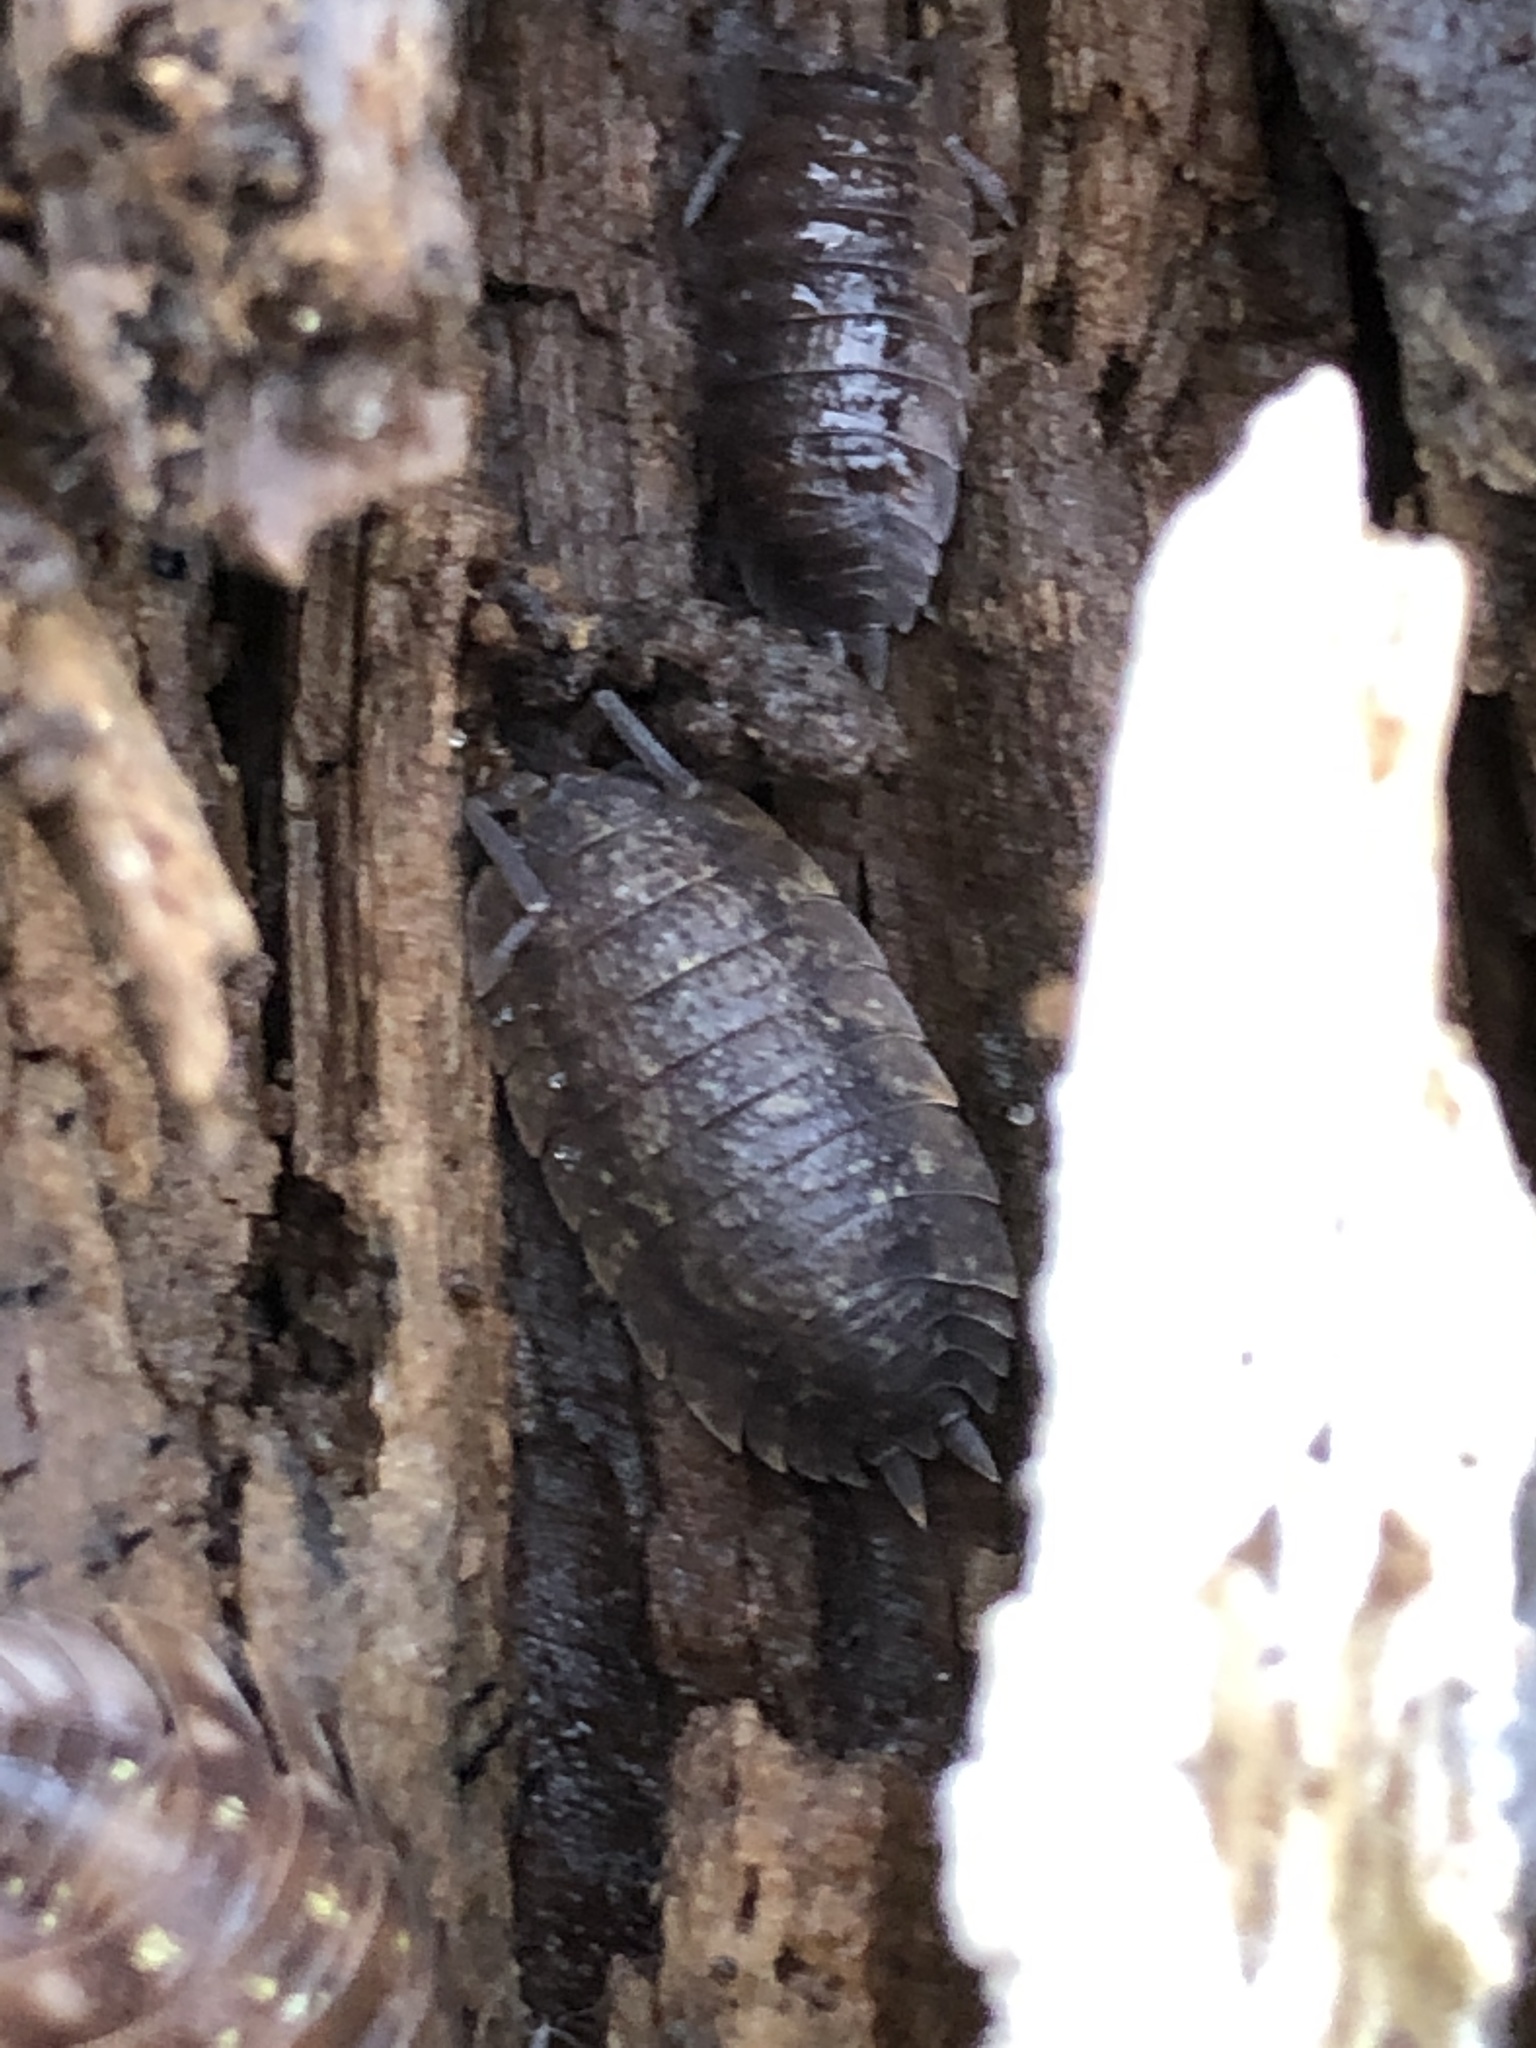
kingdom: Animalia
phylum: Arthropoda
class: Malacostraca
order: Isopoda
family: Porcellionidae
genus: Porcellio
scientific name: Porcellio scaber
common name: Common rough woodlouse
